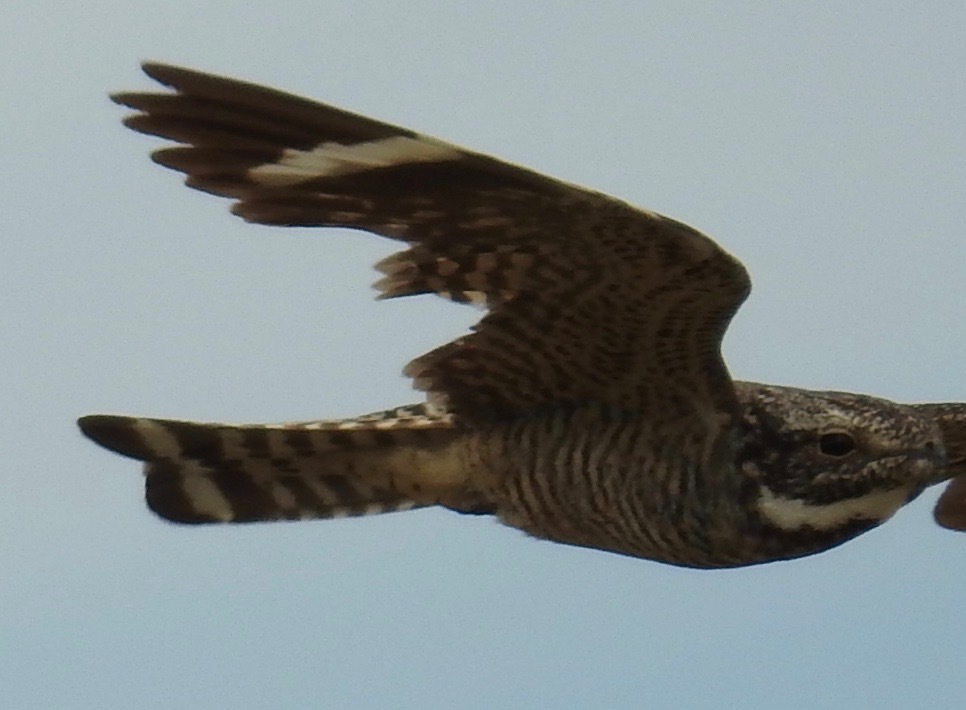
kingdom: Animalia
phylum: Chordata
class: Aves
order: Caprimulgiformes
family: Caprimulgidae
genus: Chordeiles
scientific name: Chordeiles acutipennis
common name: Lesser nighthawk
